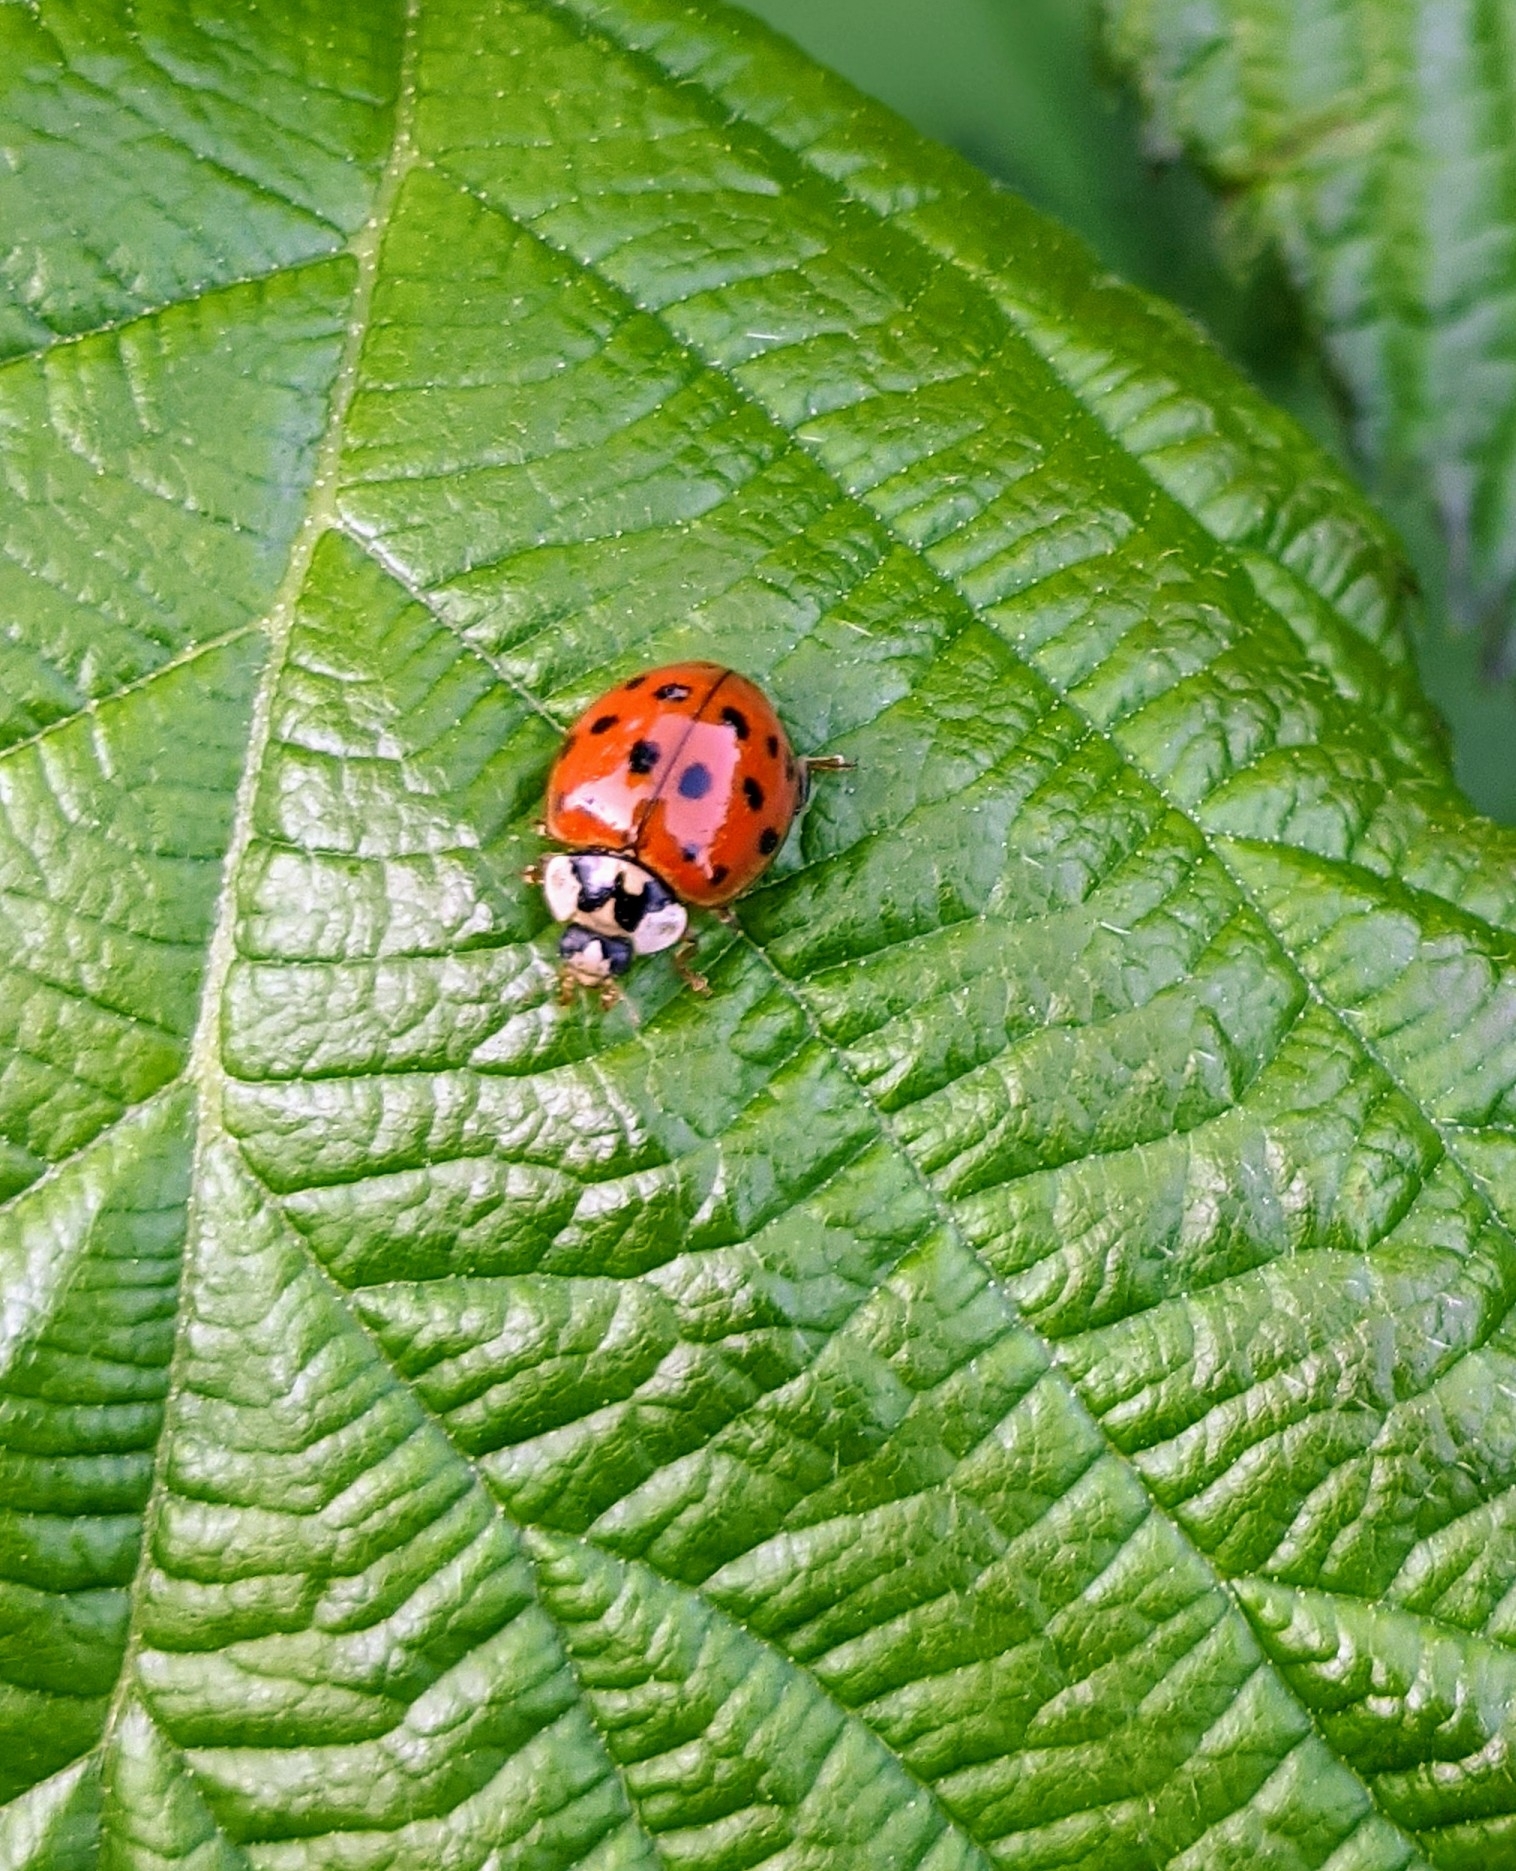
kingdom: Animalia
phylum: Arthropoda
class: Insecta
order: Coleoptera
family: Coccinellidae
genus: Harmonia
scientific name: Harmonia axyridis
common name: Harlequin ladybird
